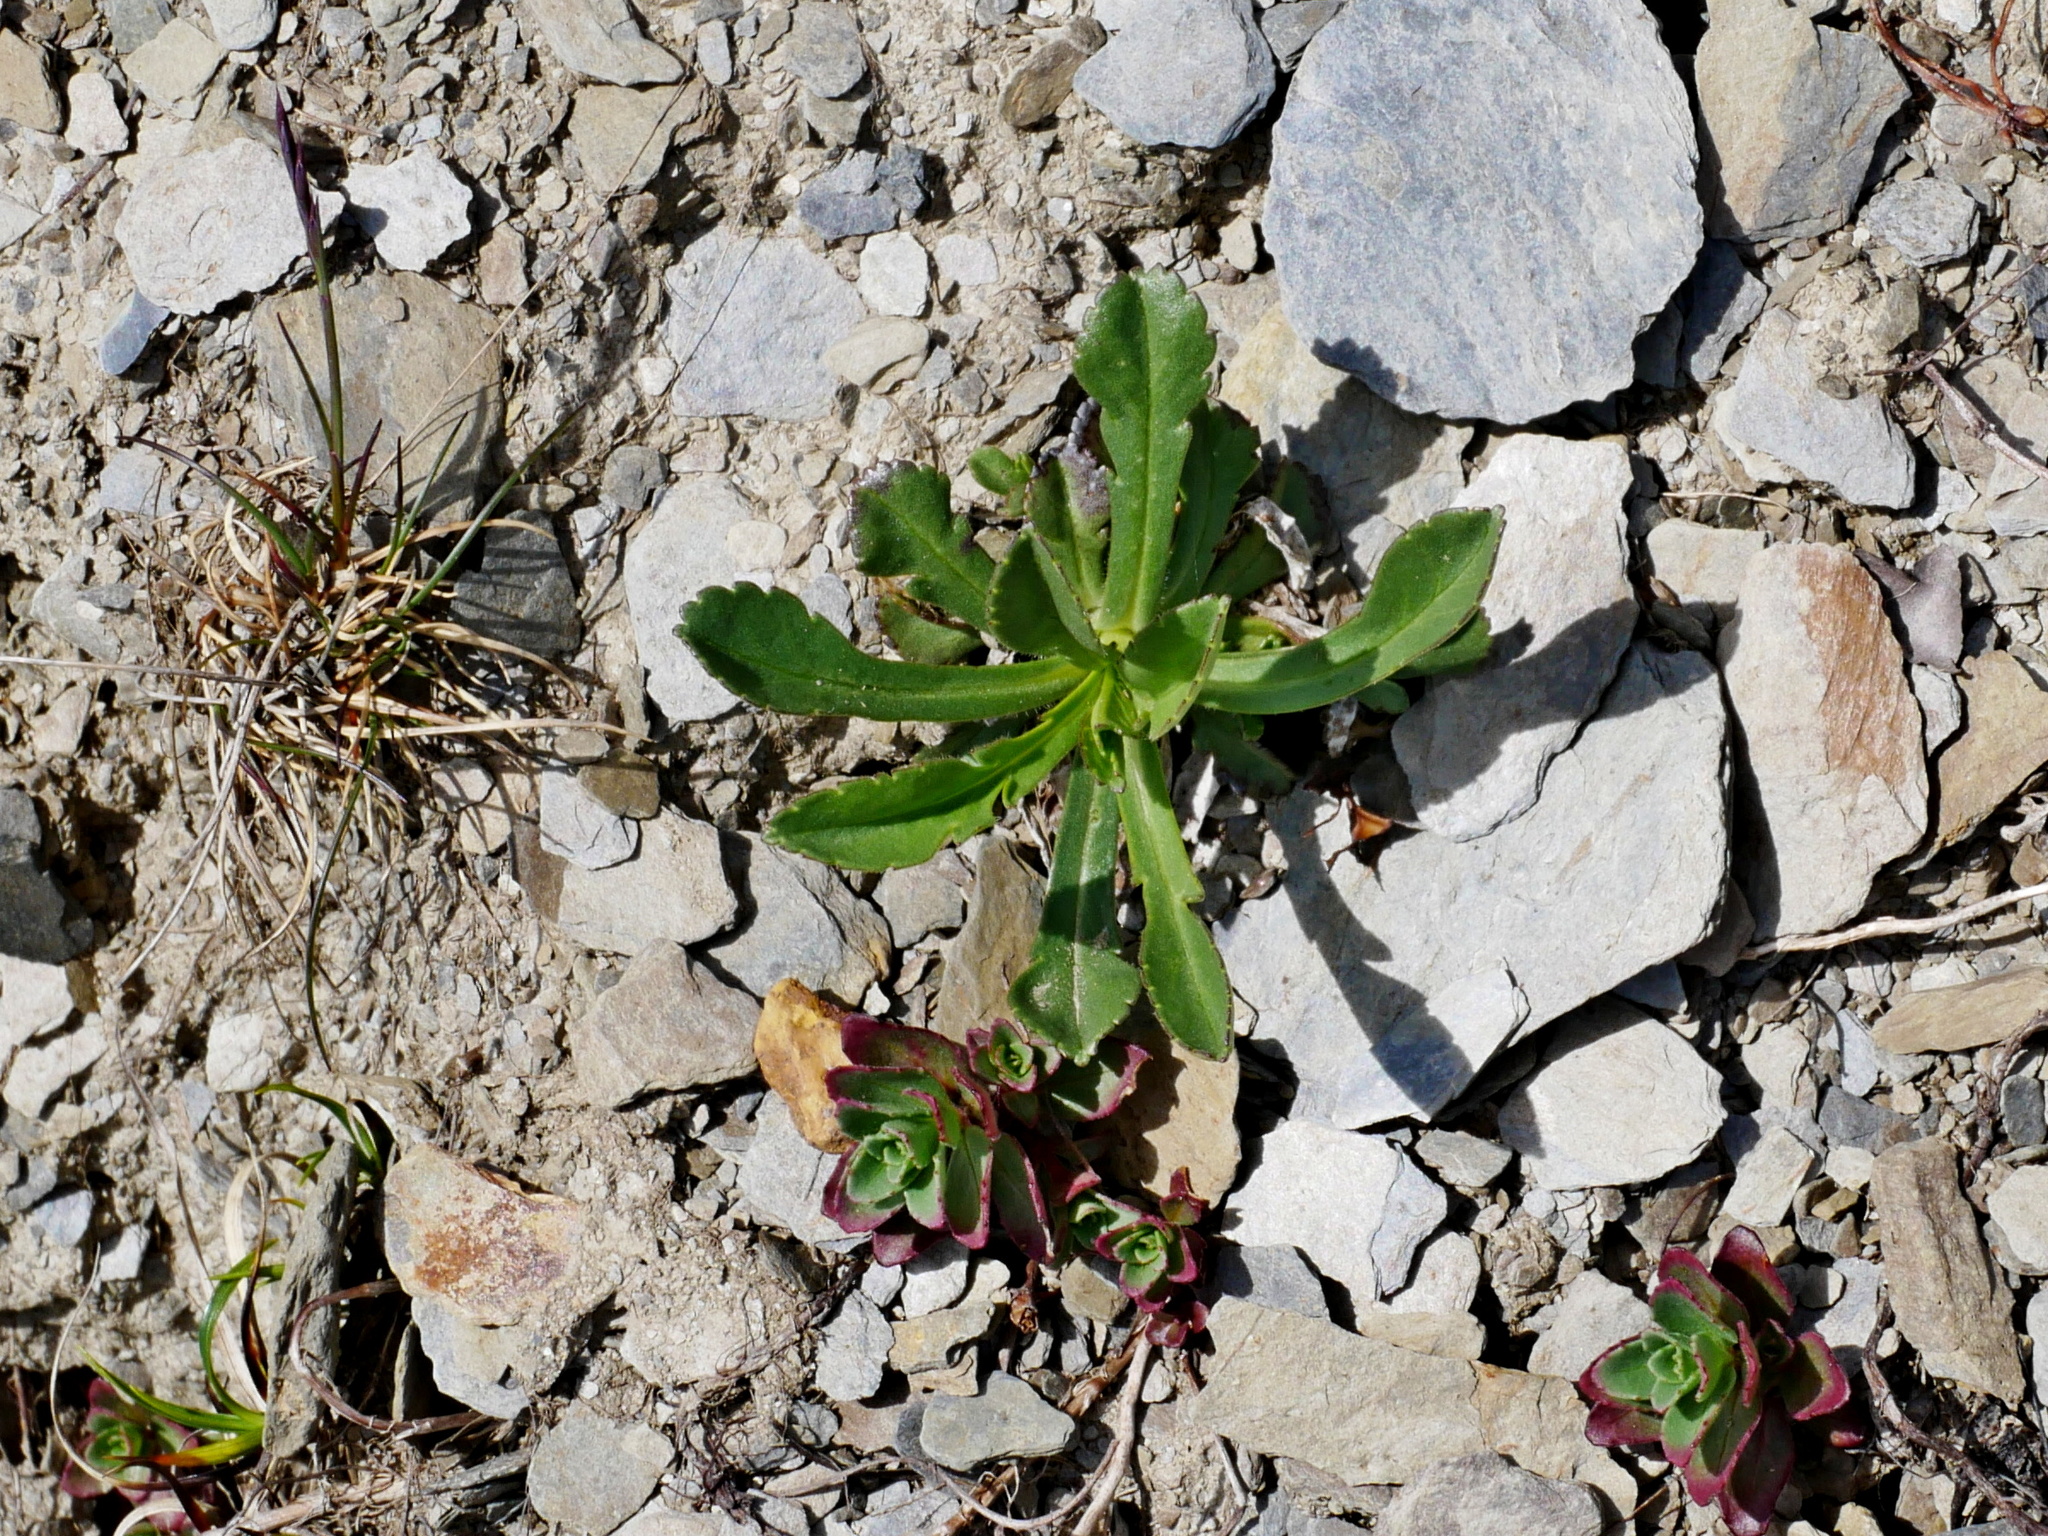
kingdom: Plantae
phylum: Tracheophyta
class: Magnoliopsida
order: Dipsacales
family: Caprifoliaceae
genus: Scabiosa
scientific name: Scabiosa lacerifolia
